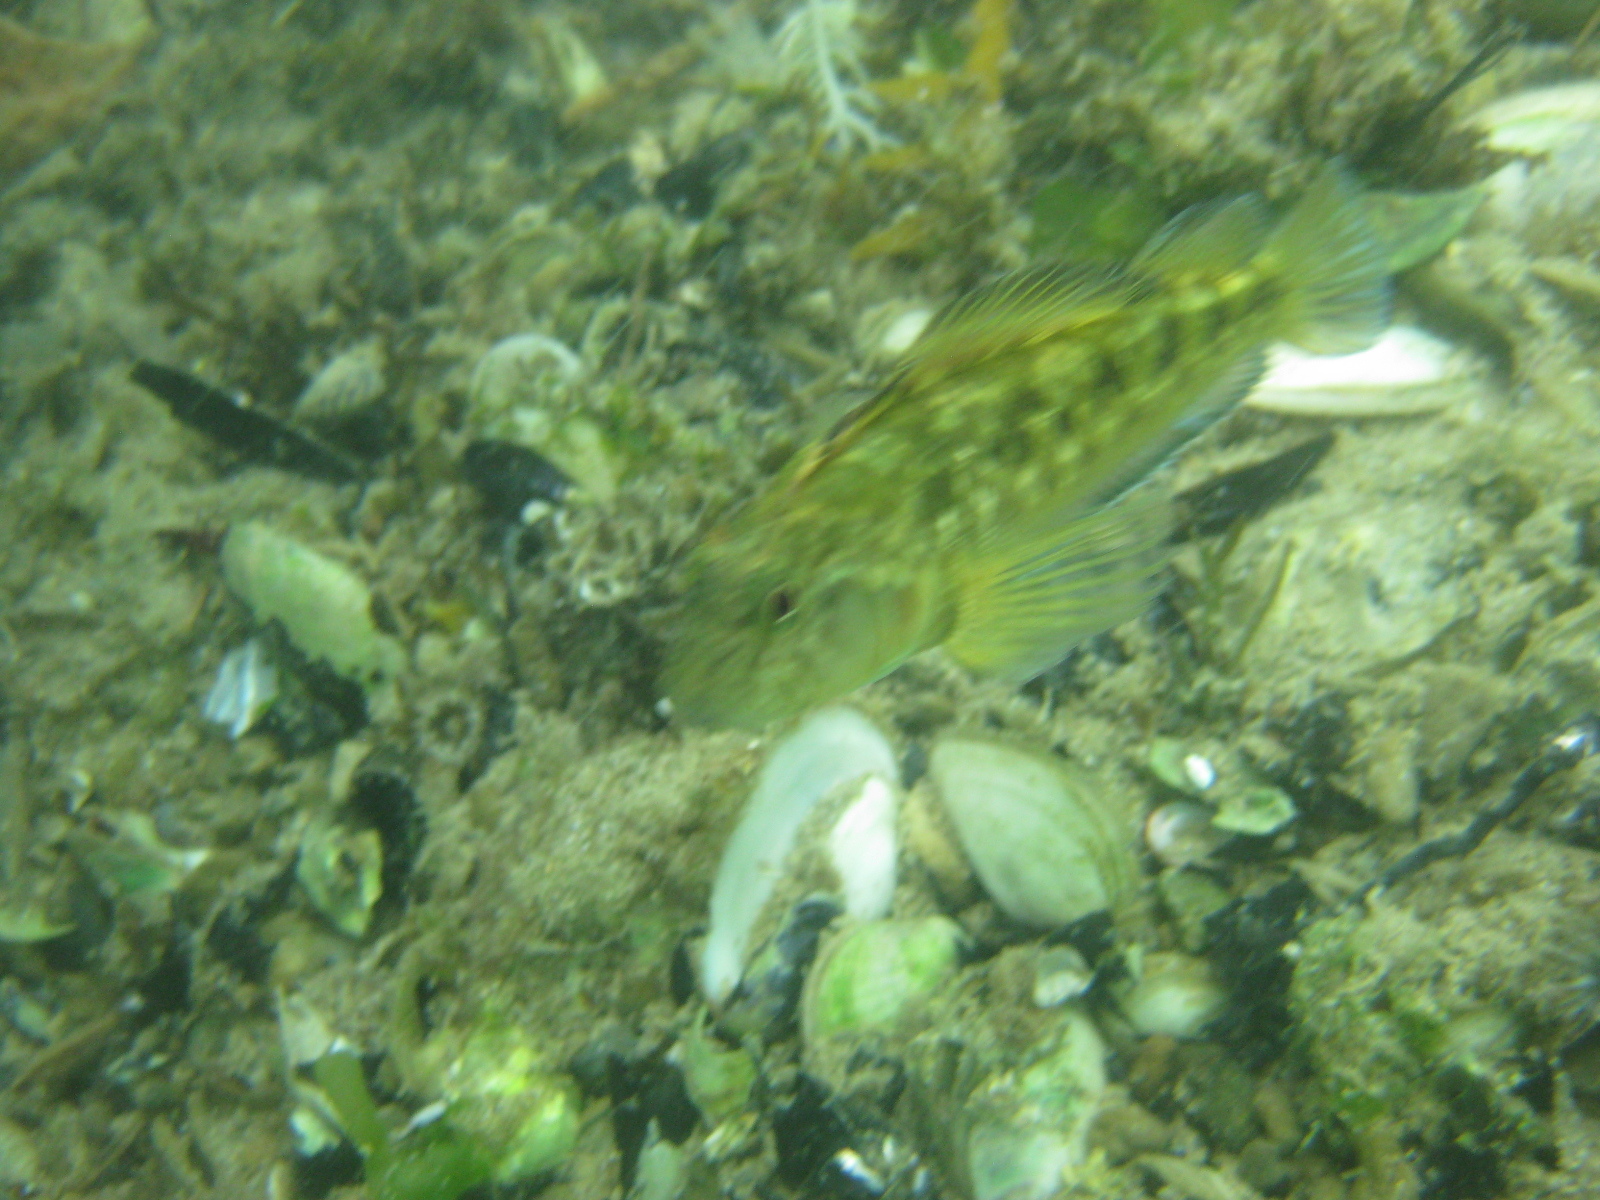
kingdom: Animalia
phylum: Chordata
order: Perciformes
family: Tripterygiidae
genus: Forsterygion
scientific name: Forsterygion nigripenne
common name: Cockabully
